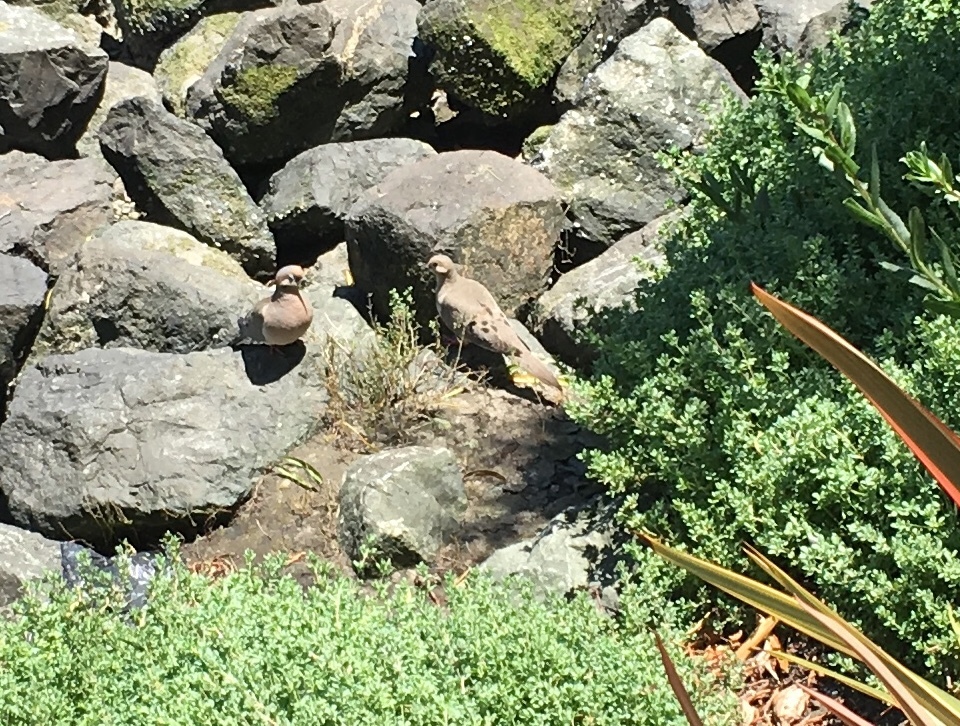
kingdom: Animalia
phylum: Chordata
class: Aves
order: Columbiformes
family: Columbidae
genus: Zenaida
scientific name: Zenaida macroura
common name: Mourning dove
